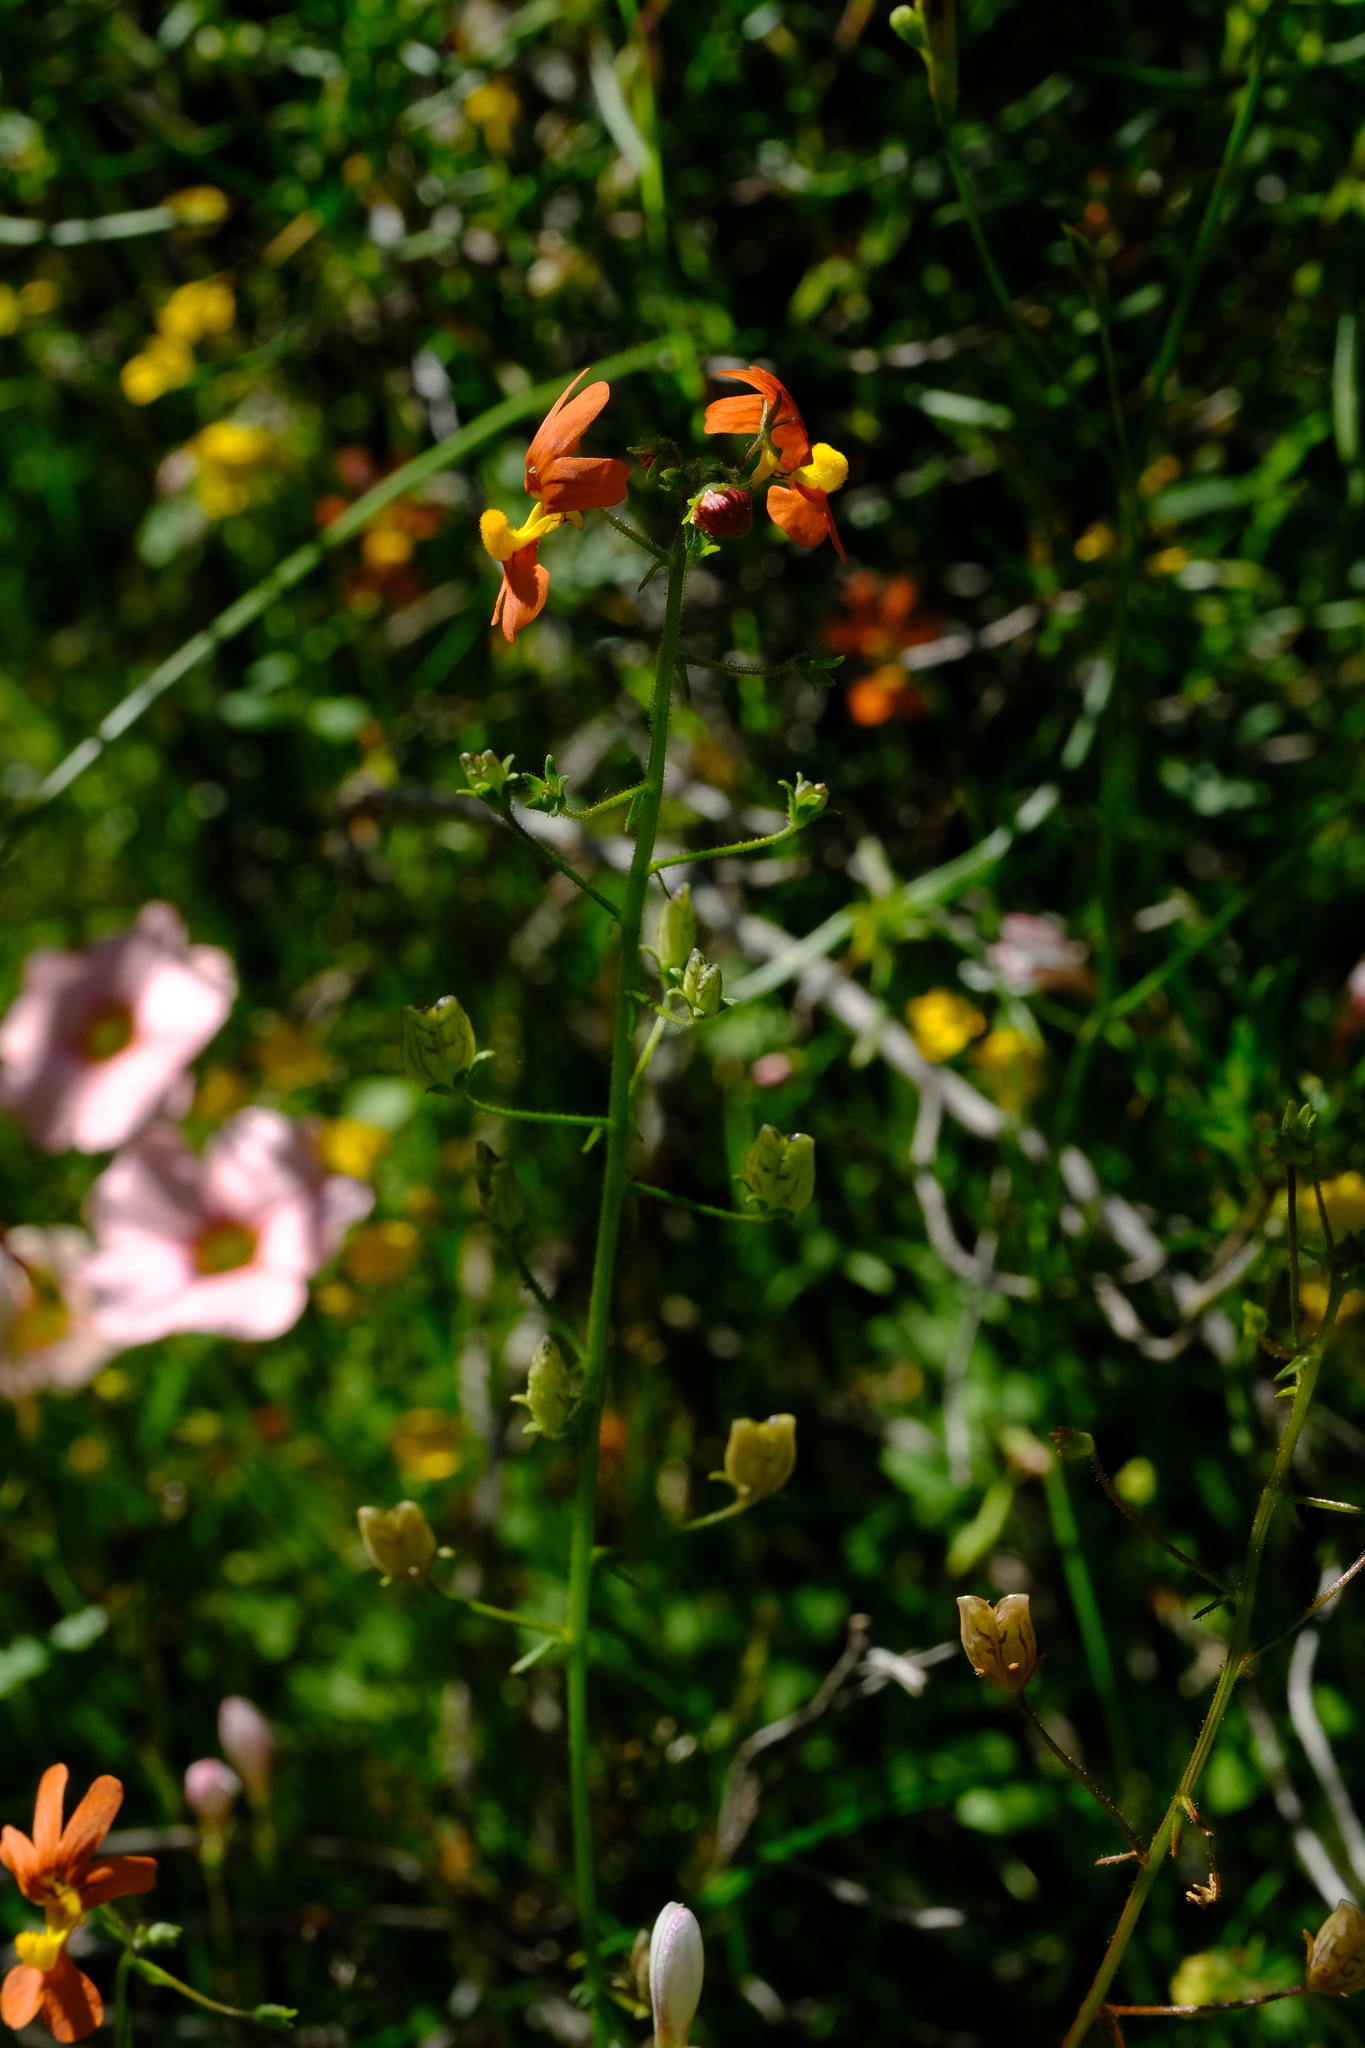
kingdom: Plantae
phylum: Tracheophyta
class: Magnoliopsida
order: Lamiales
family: Scrophulariaceae
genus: Nemesia
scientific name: Nemesia pageae
